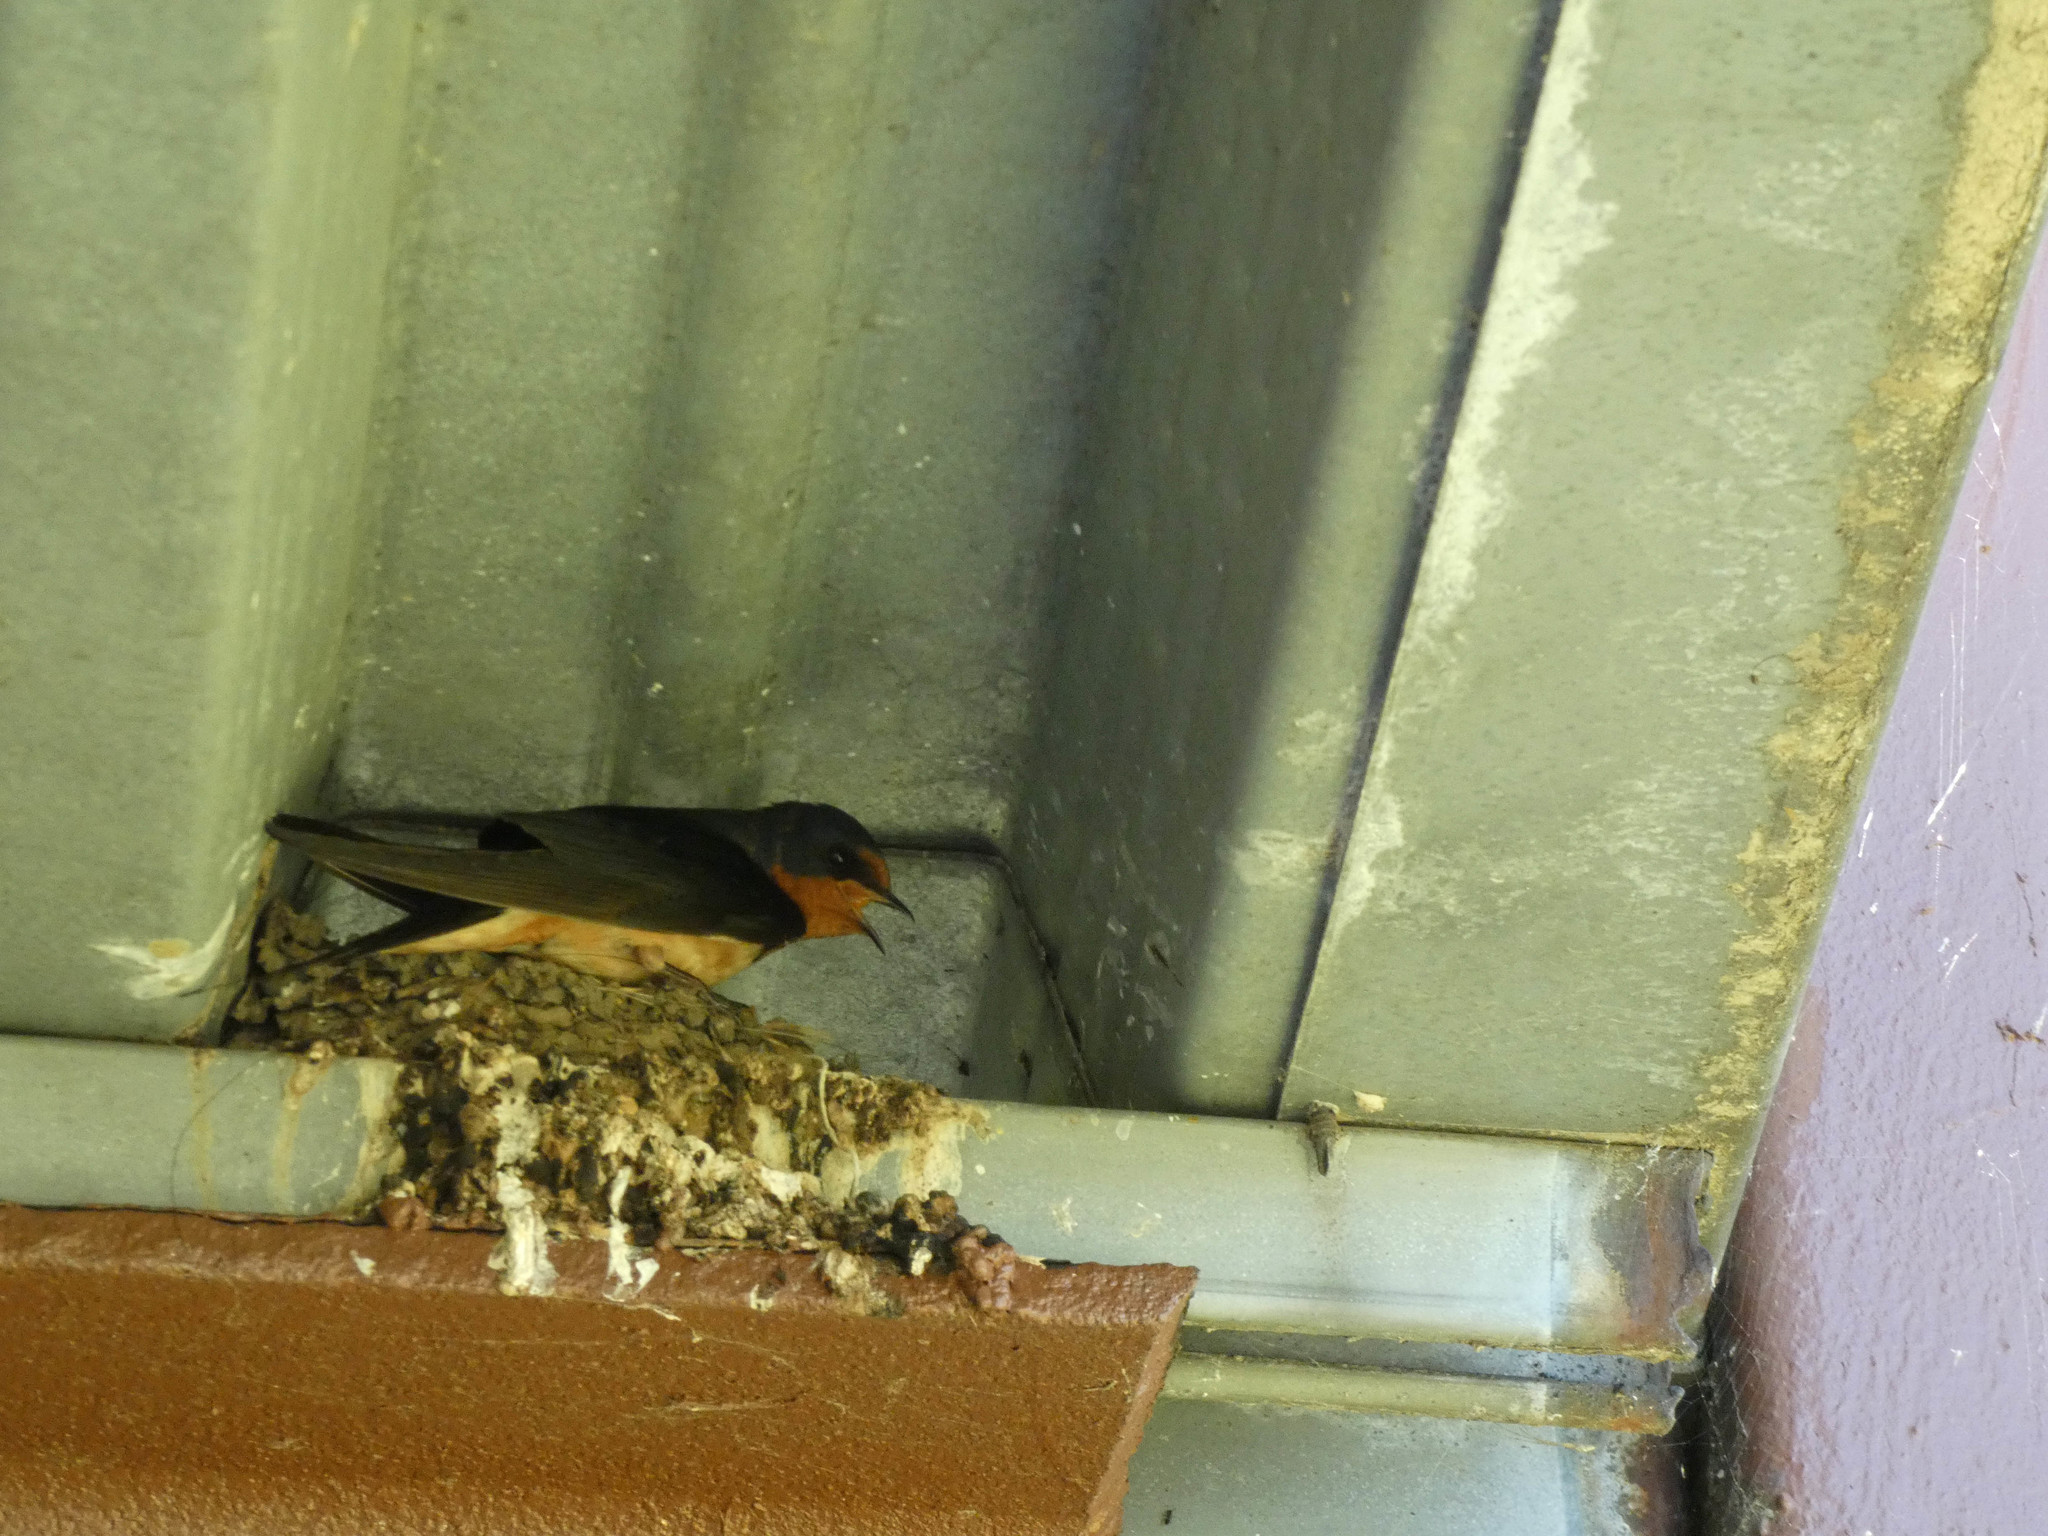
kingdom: Animalia
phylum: Chordata
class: Aves
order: Passeriformes
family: Hirundinidae
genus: Hirundo
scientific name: Hirundo rustica
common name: Barn swallow
